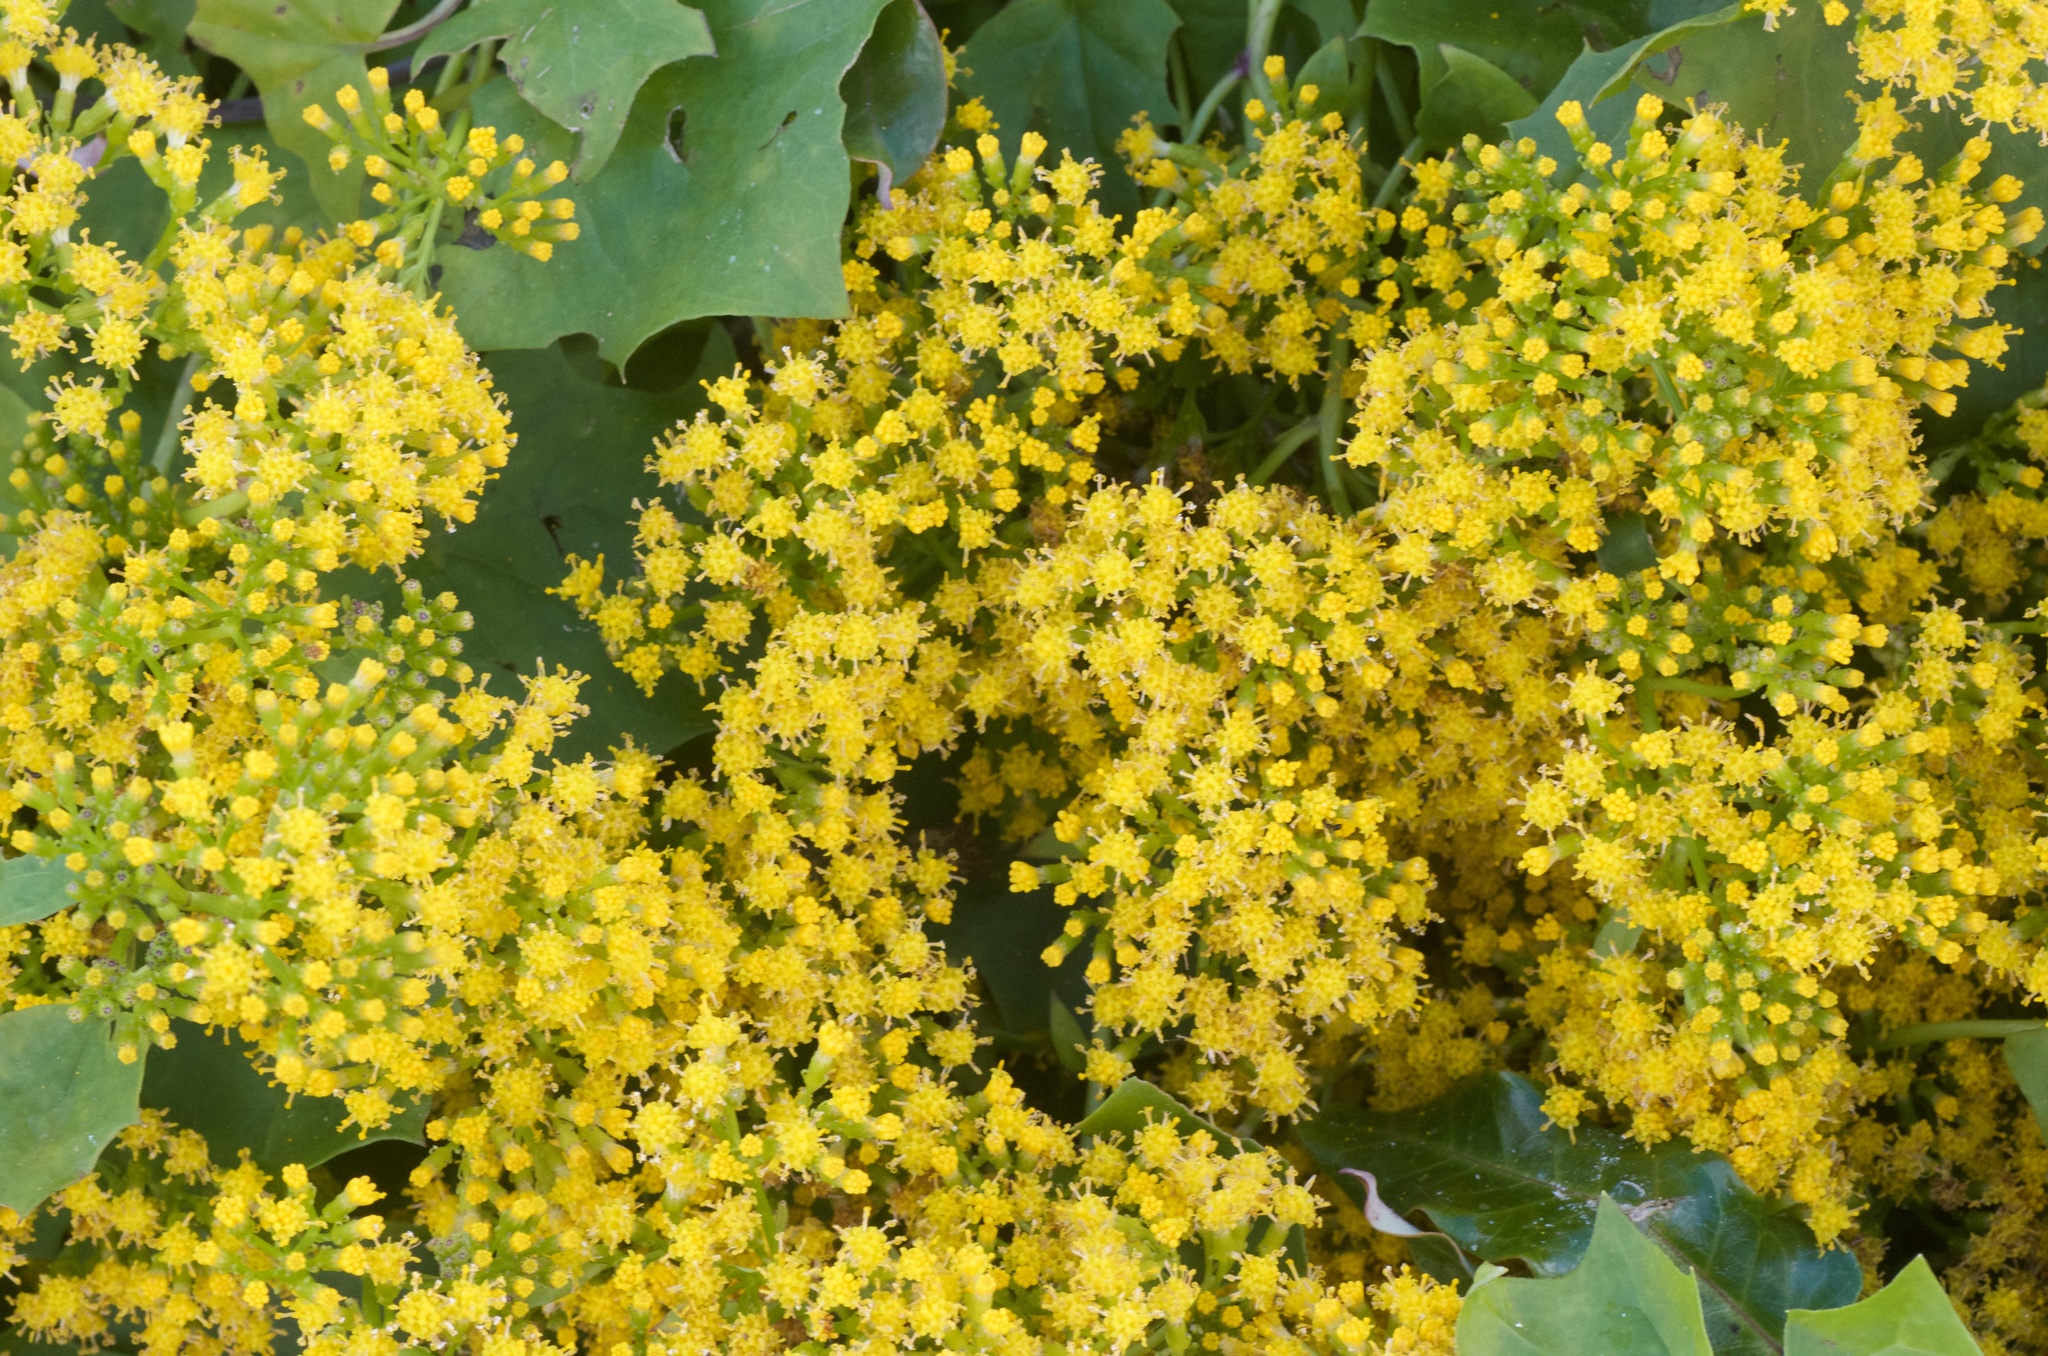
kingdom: Plantae
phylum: Tracheophyta
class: Magnoliopsida
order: Asterales
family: Asteraceae
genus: Delairea
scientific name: Delairea odorata
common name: Cape-ivy
